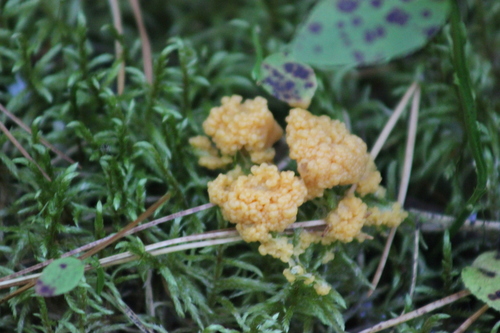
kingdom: Protozoa
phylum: Mycetozoa
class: Myxomycetes
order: Physarales
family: Physaraceae
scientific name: Physaraceae
